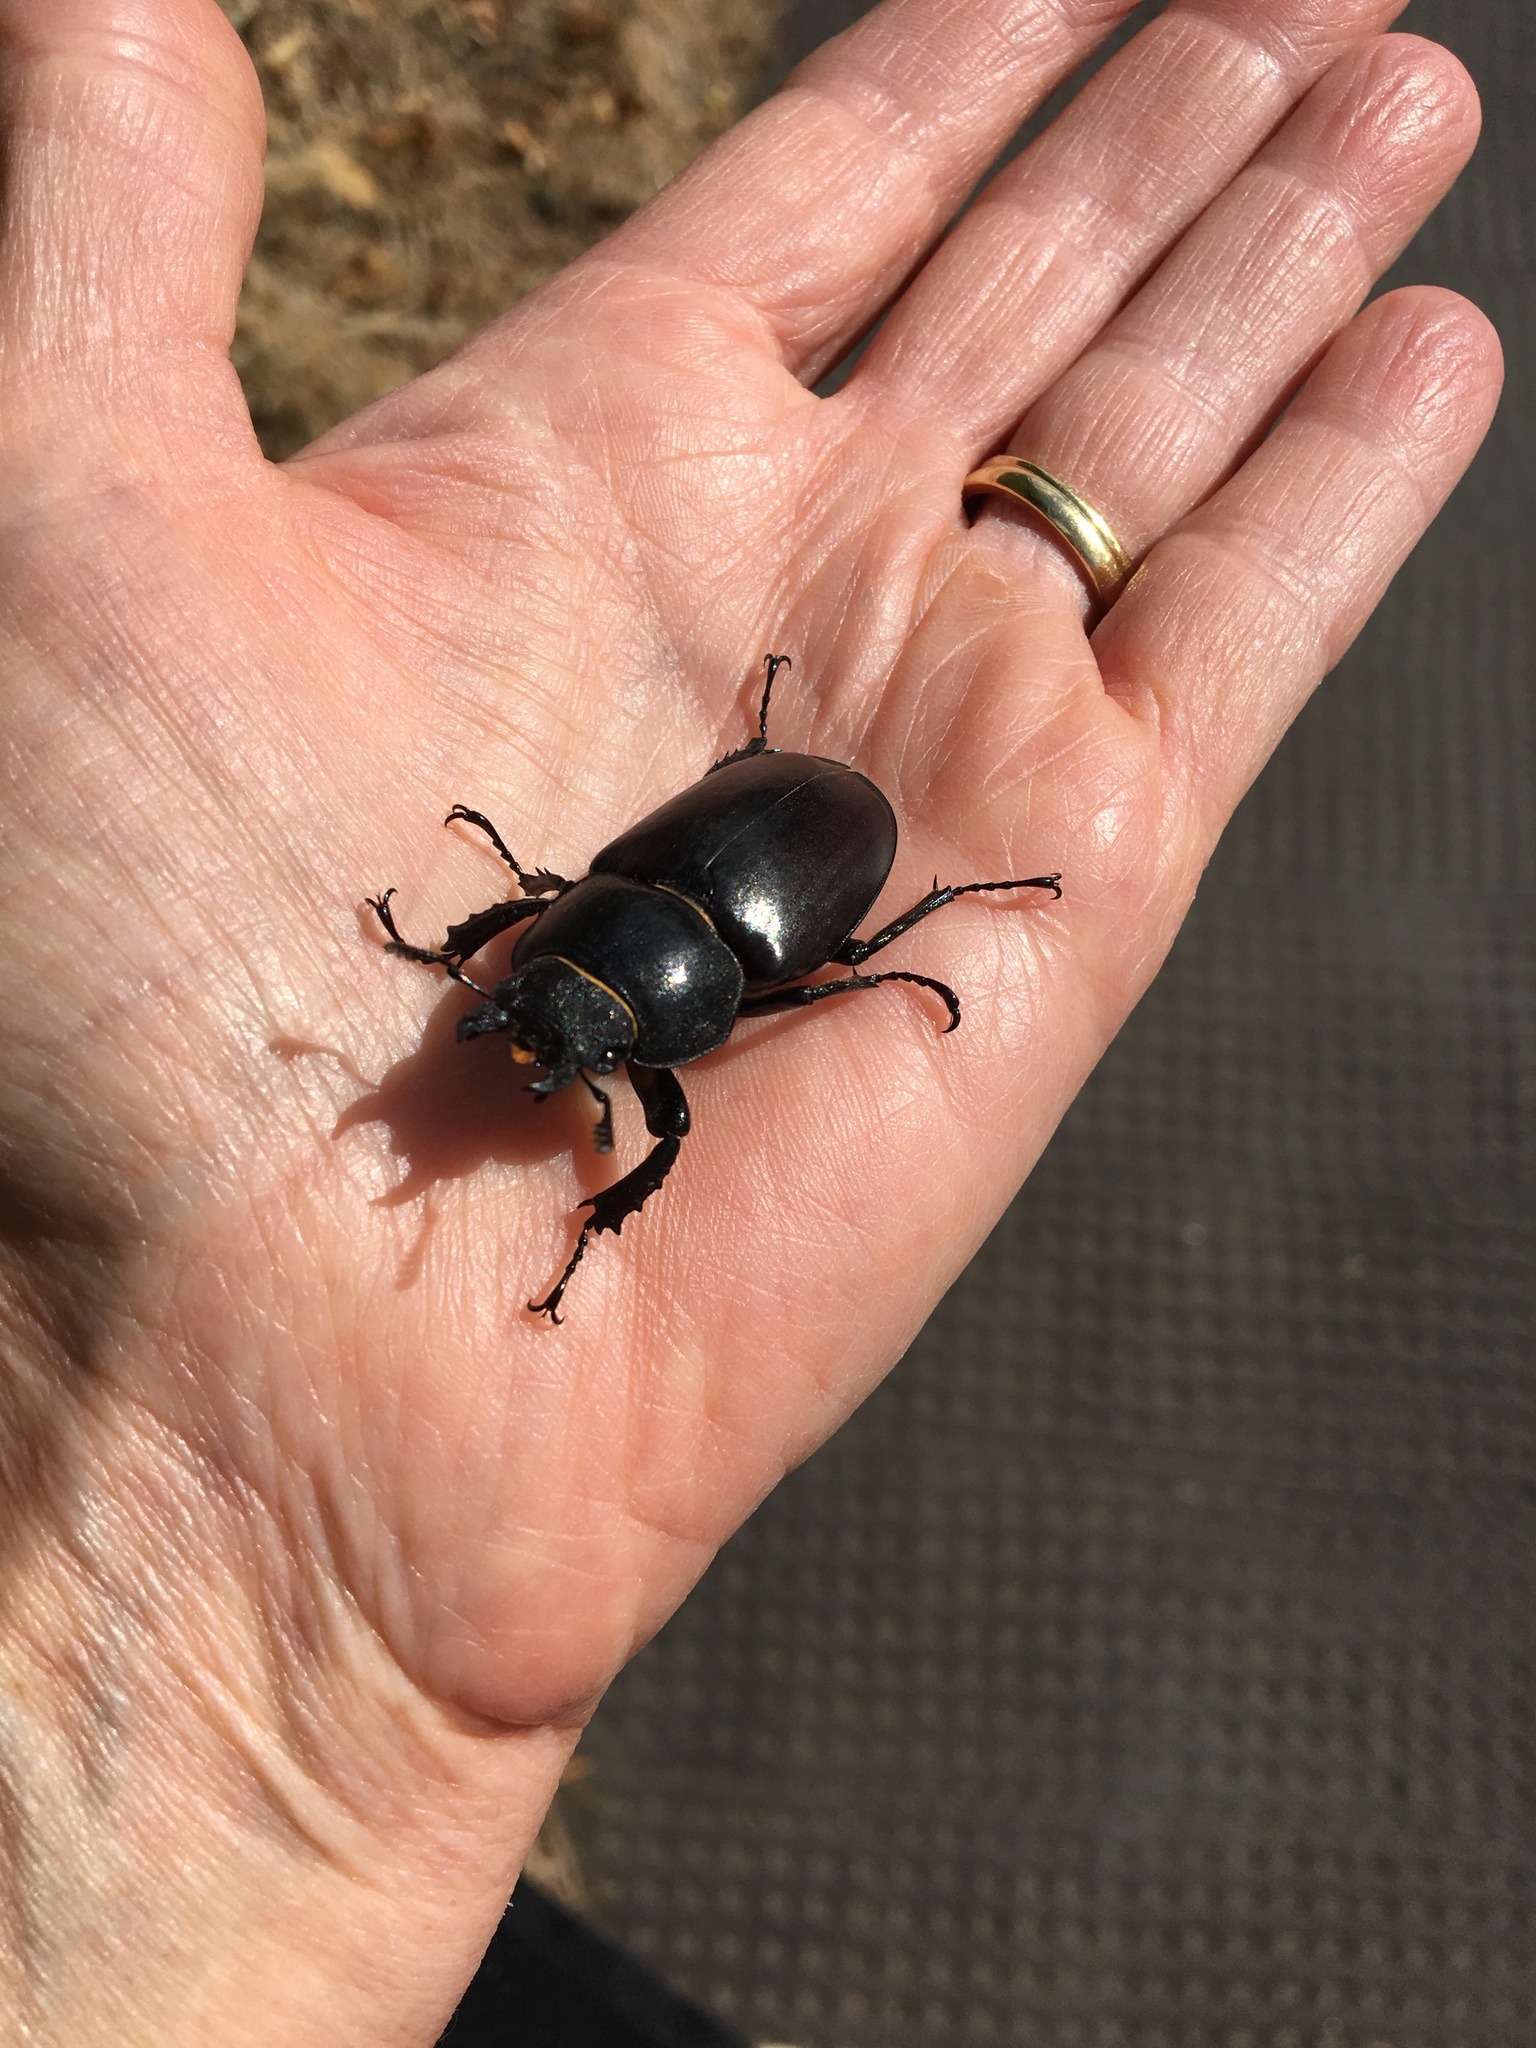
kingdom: Animalia
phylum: Arthropoda
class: Insecta
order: Coleoptera
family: Lucanidae
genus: Lucanus
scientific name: Lucanus cervus
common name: Stag beetle
